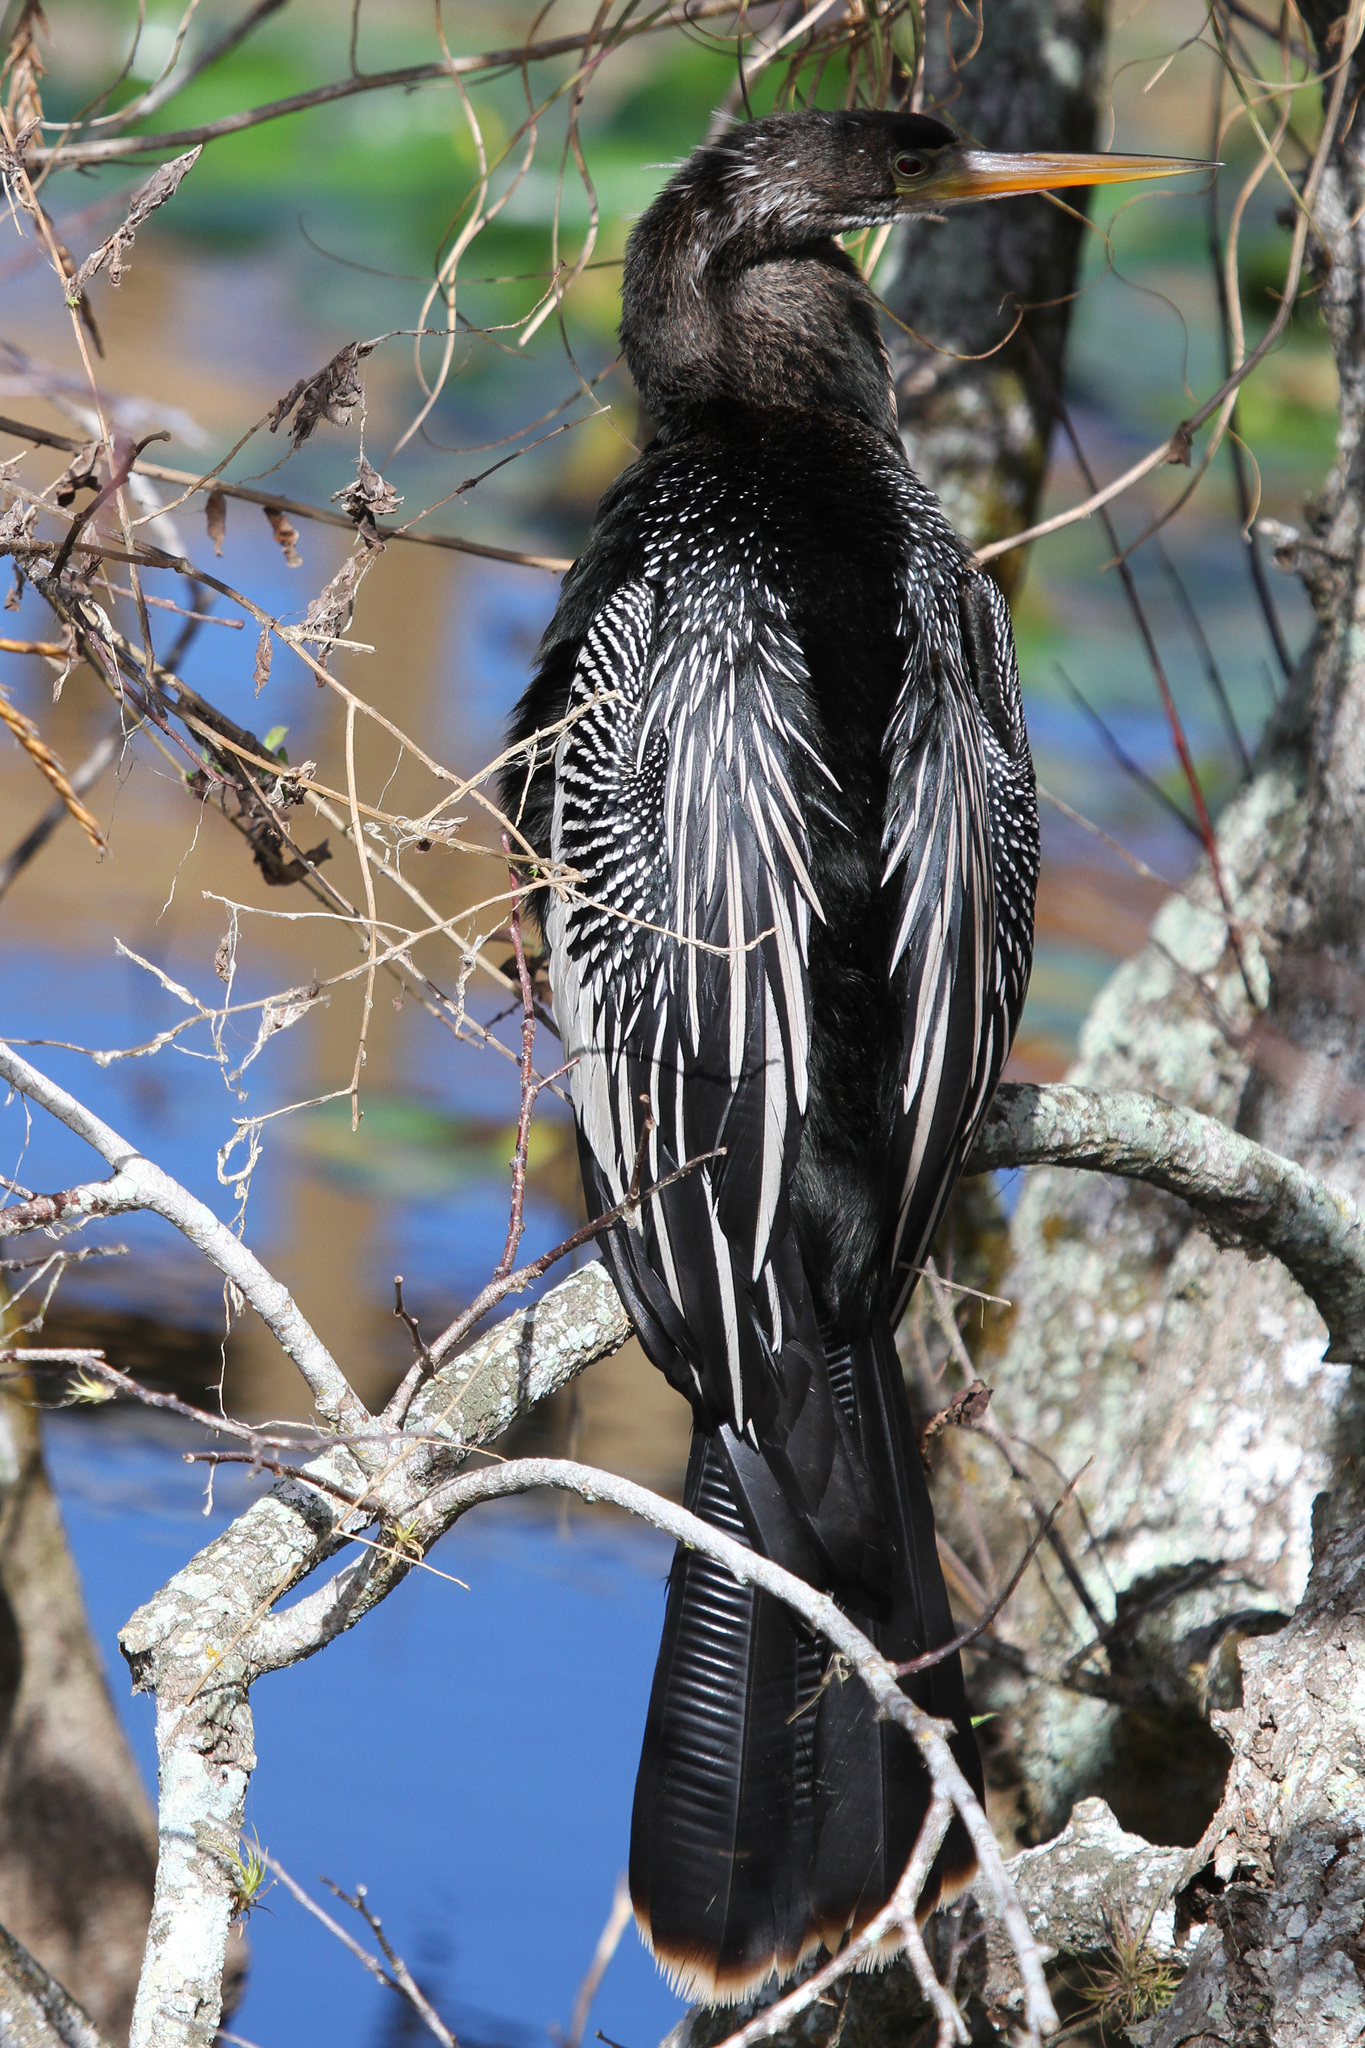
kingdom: Animalia
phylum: Chordata
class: Aves
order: Suliformes
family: Anhingidae
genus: Anhinga
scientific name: Anhinga anhinga
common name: Anhinga
